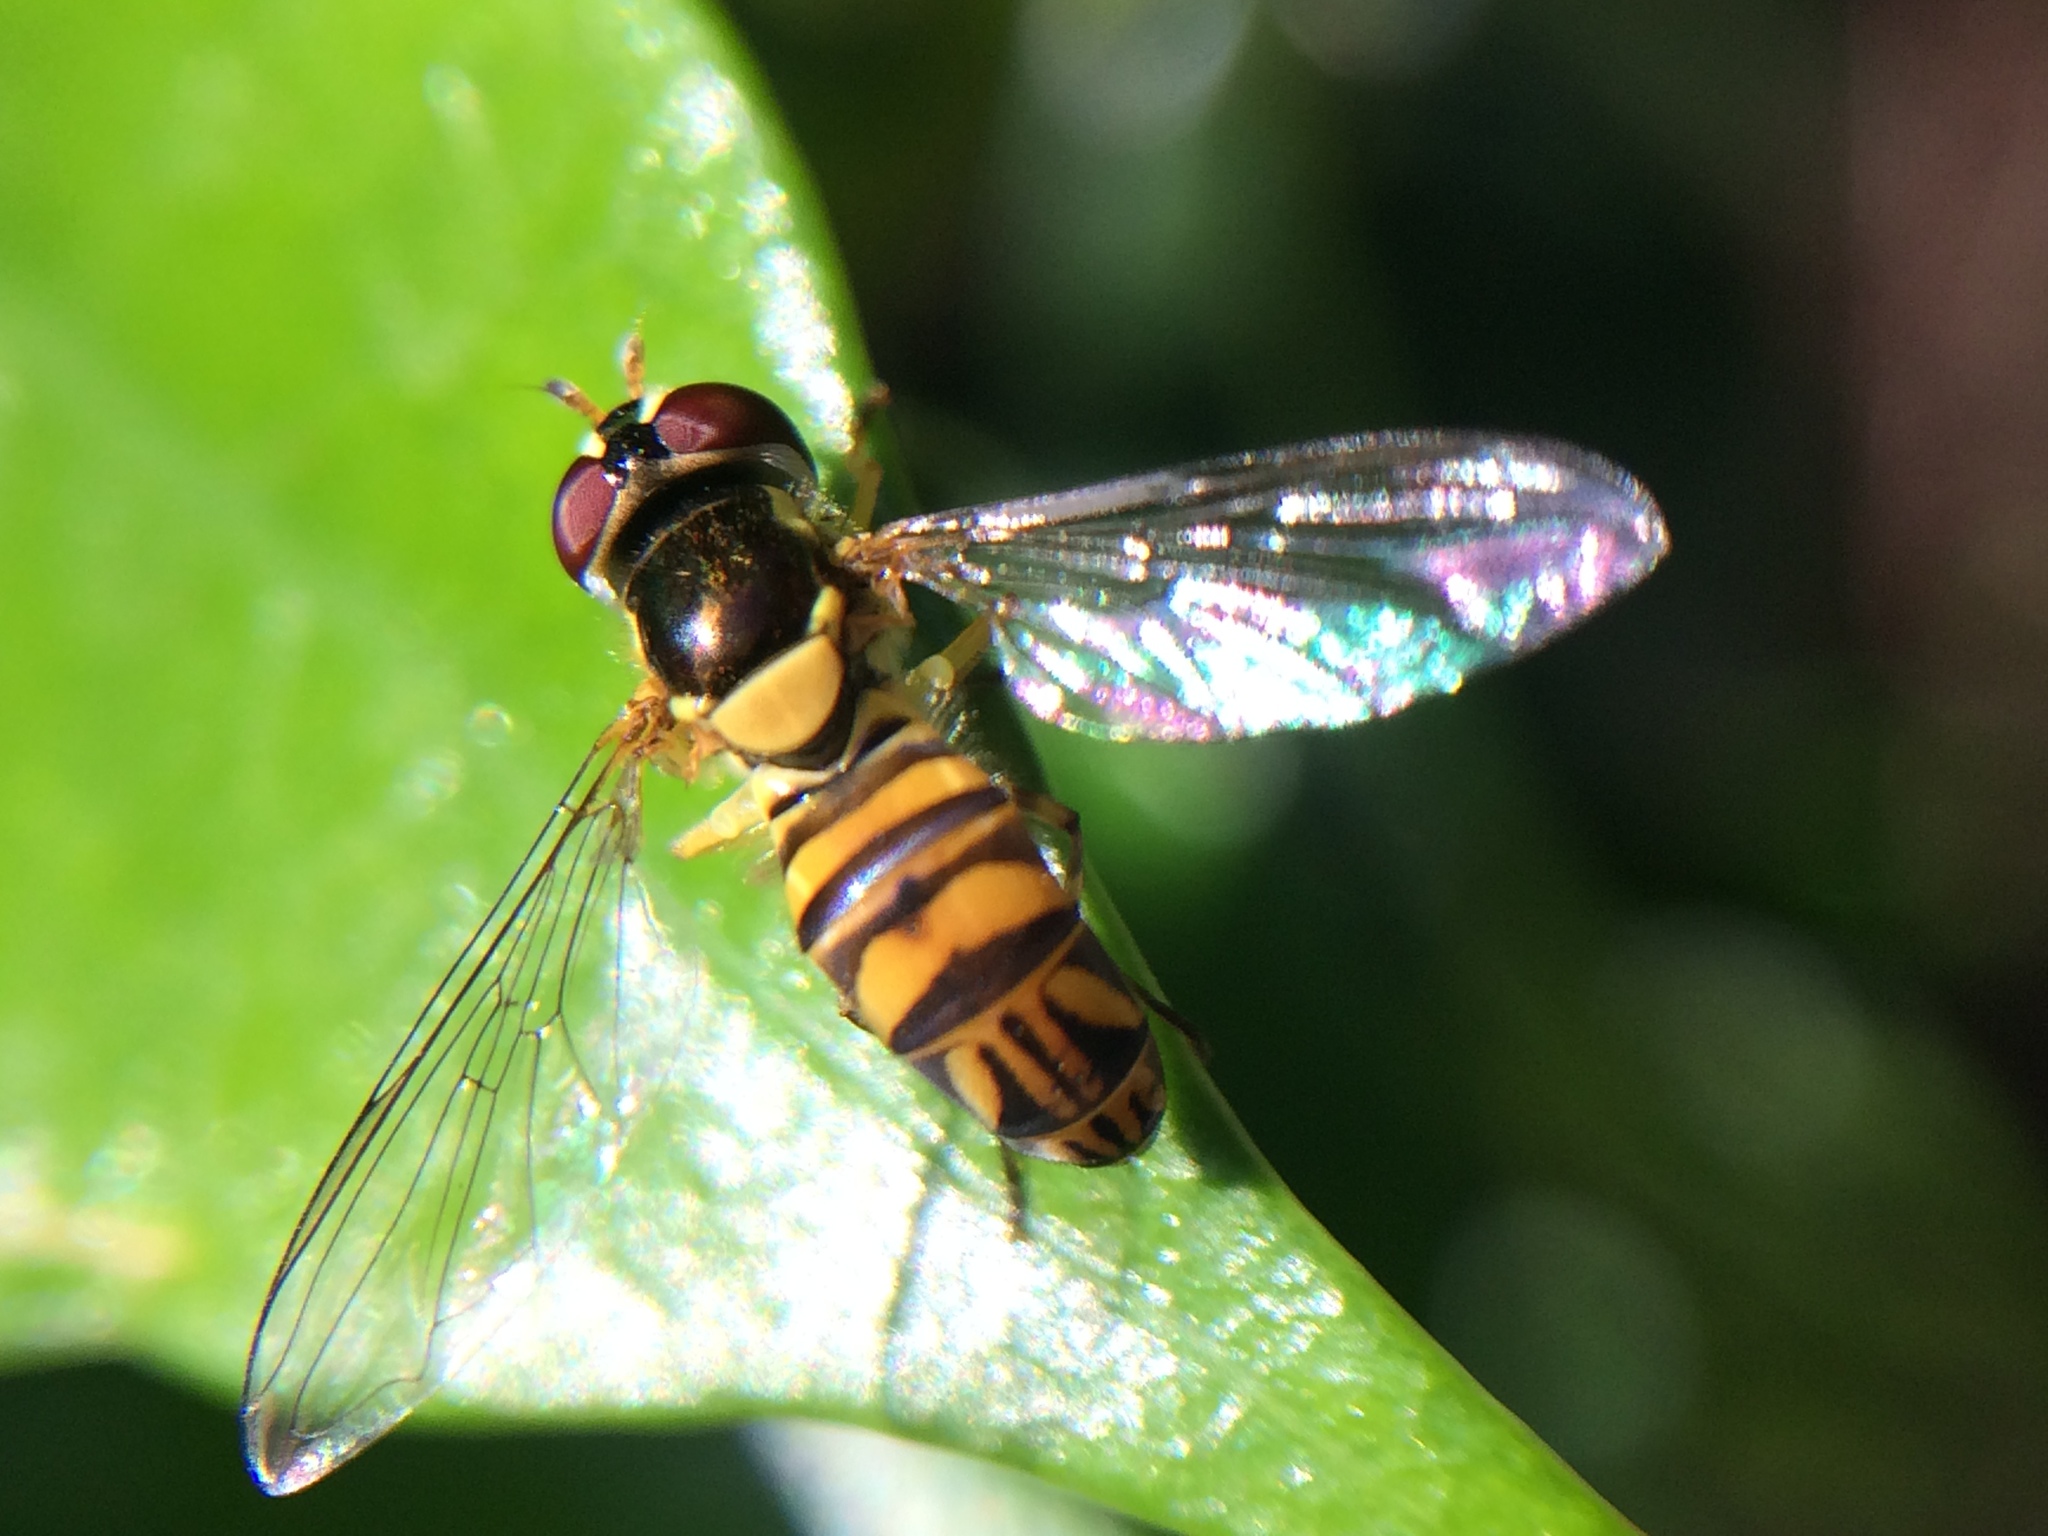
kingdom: Animalia
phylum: Arthropoda
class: Insecta
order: Diptera
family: Syrphidae
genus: Allograpta
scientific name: Allograpta obliqua
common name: Common oblique syrphid
